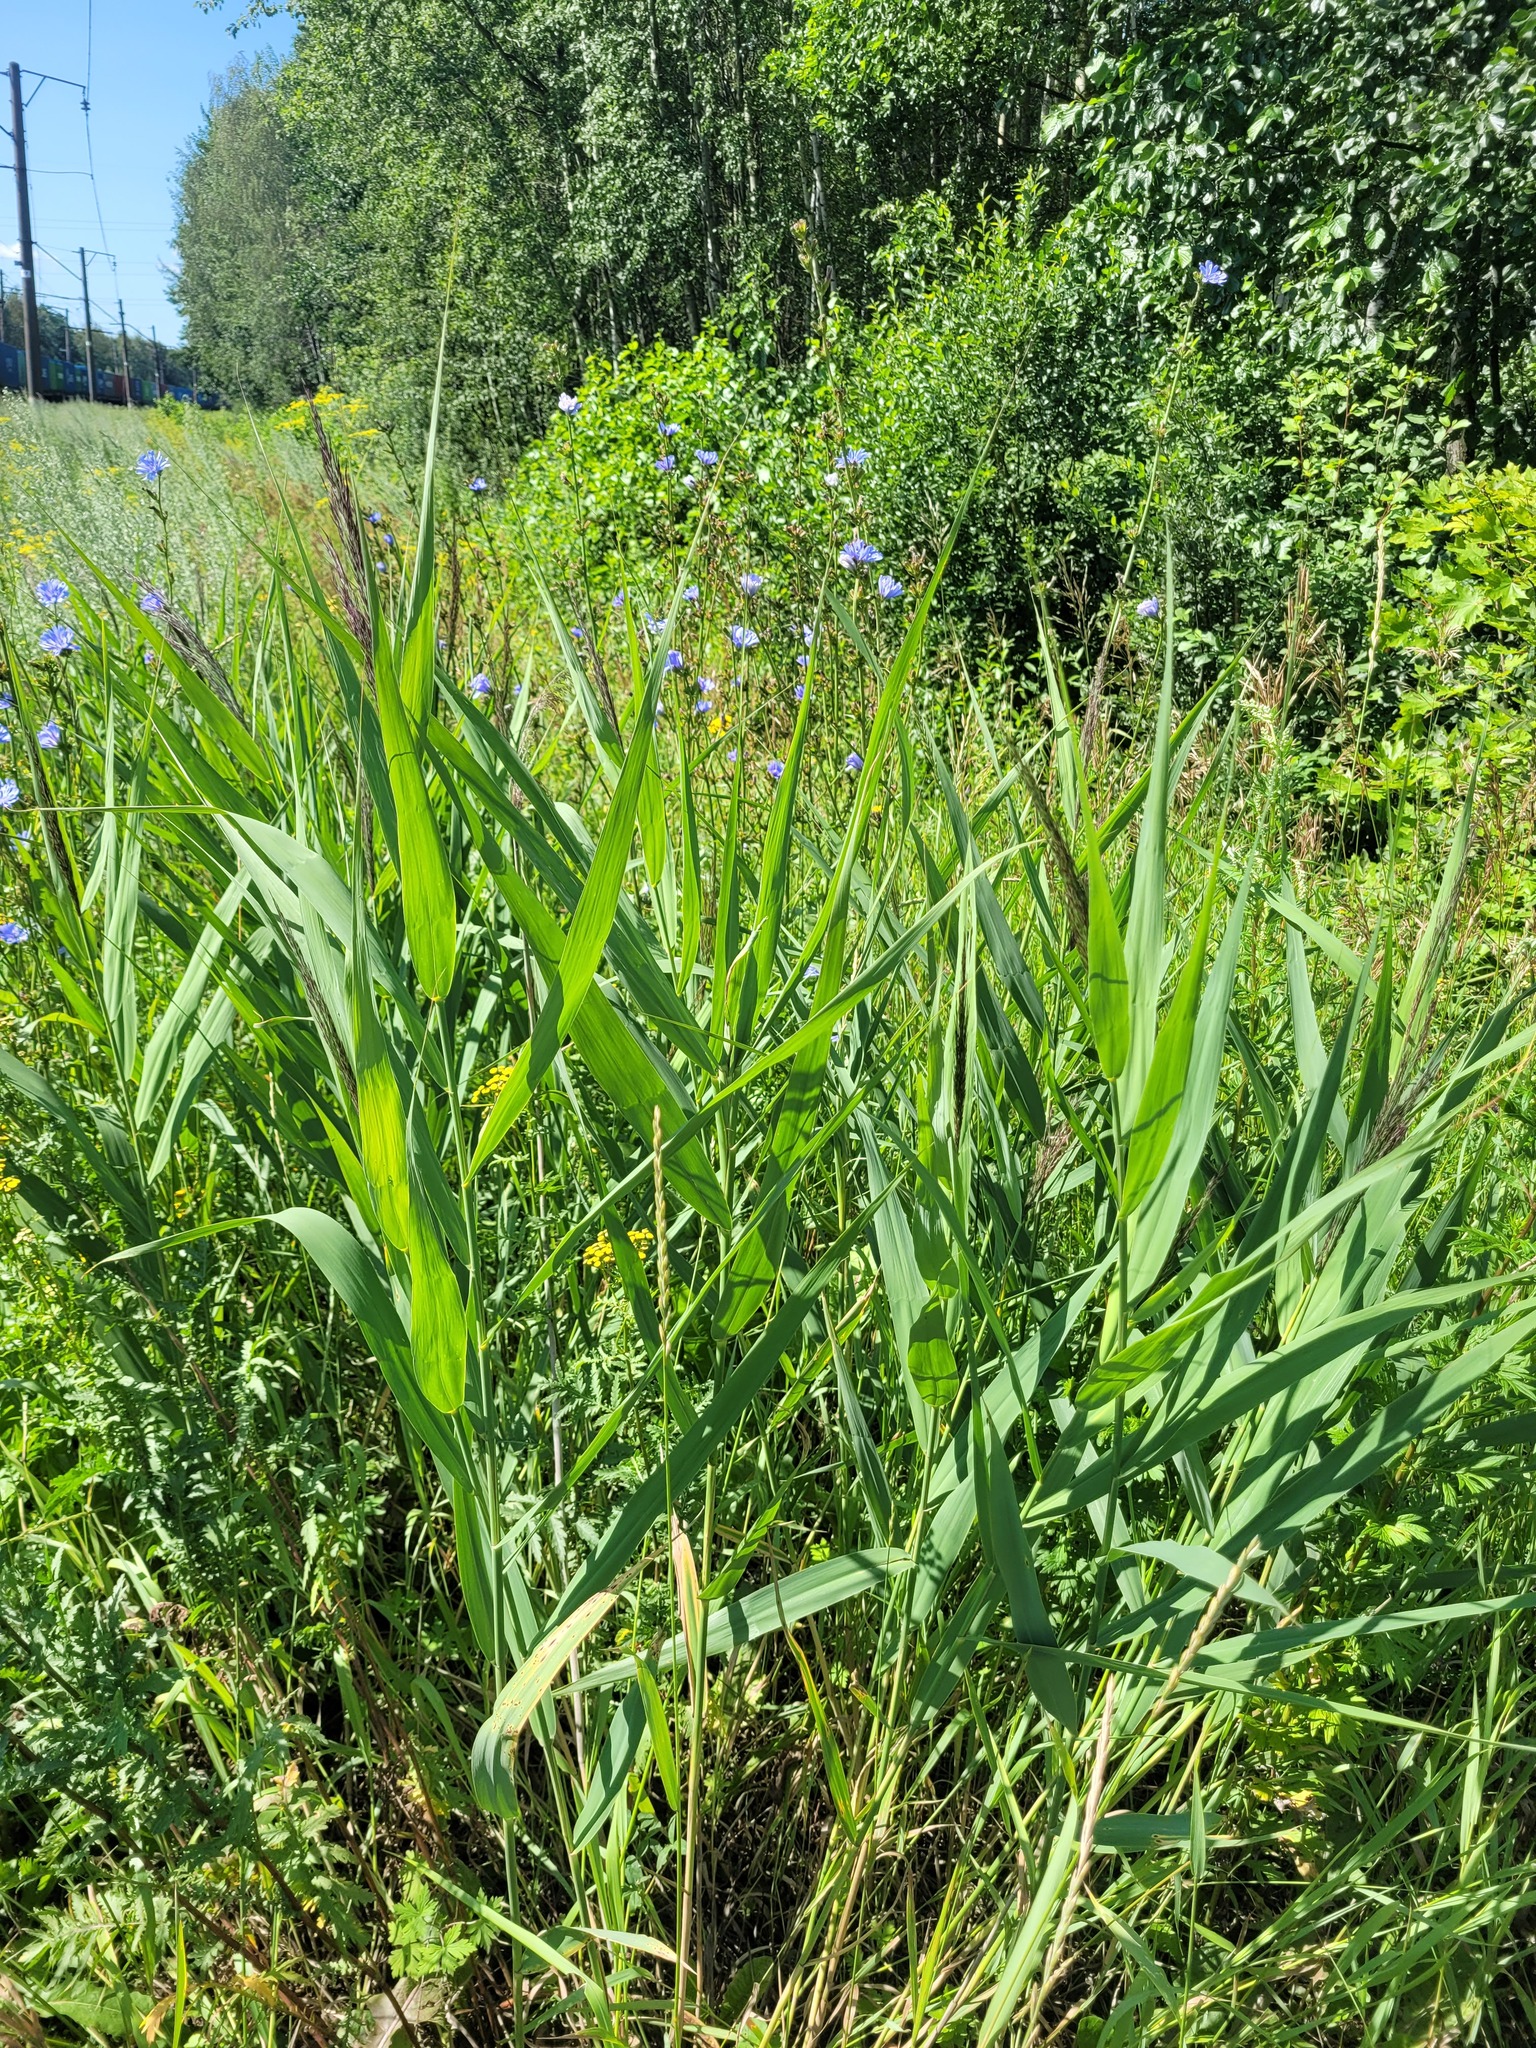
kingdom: Plantae
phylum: Tracheophyta
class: Liliopsida
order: Poales
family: Poaceae
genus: Phragmites
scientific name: Phragmites australis
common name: Common reed
